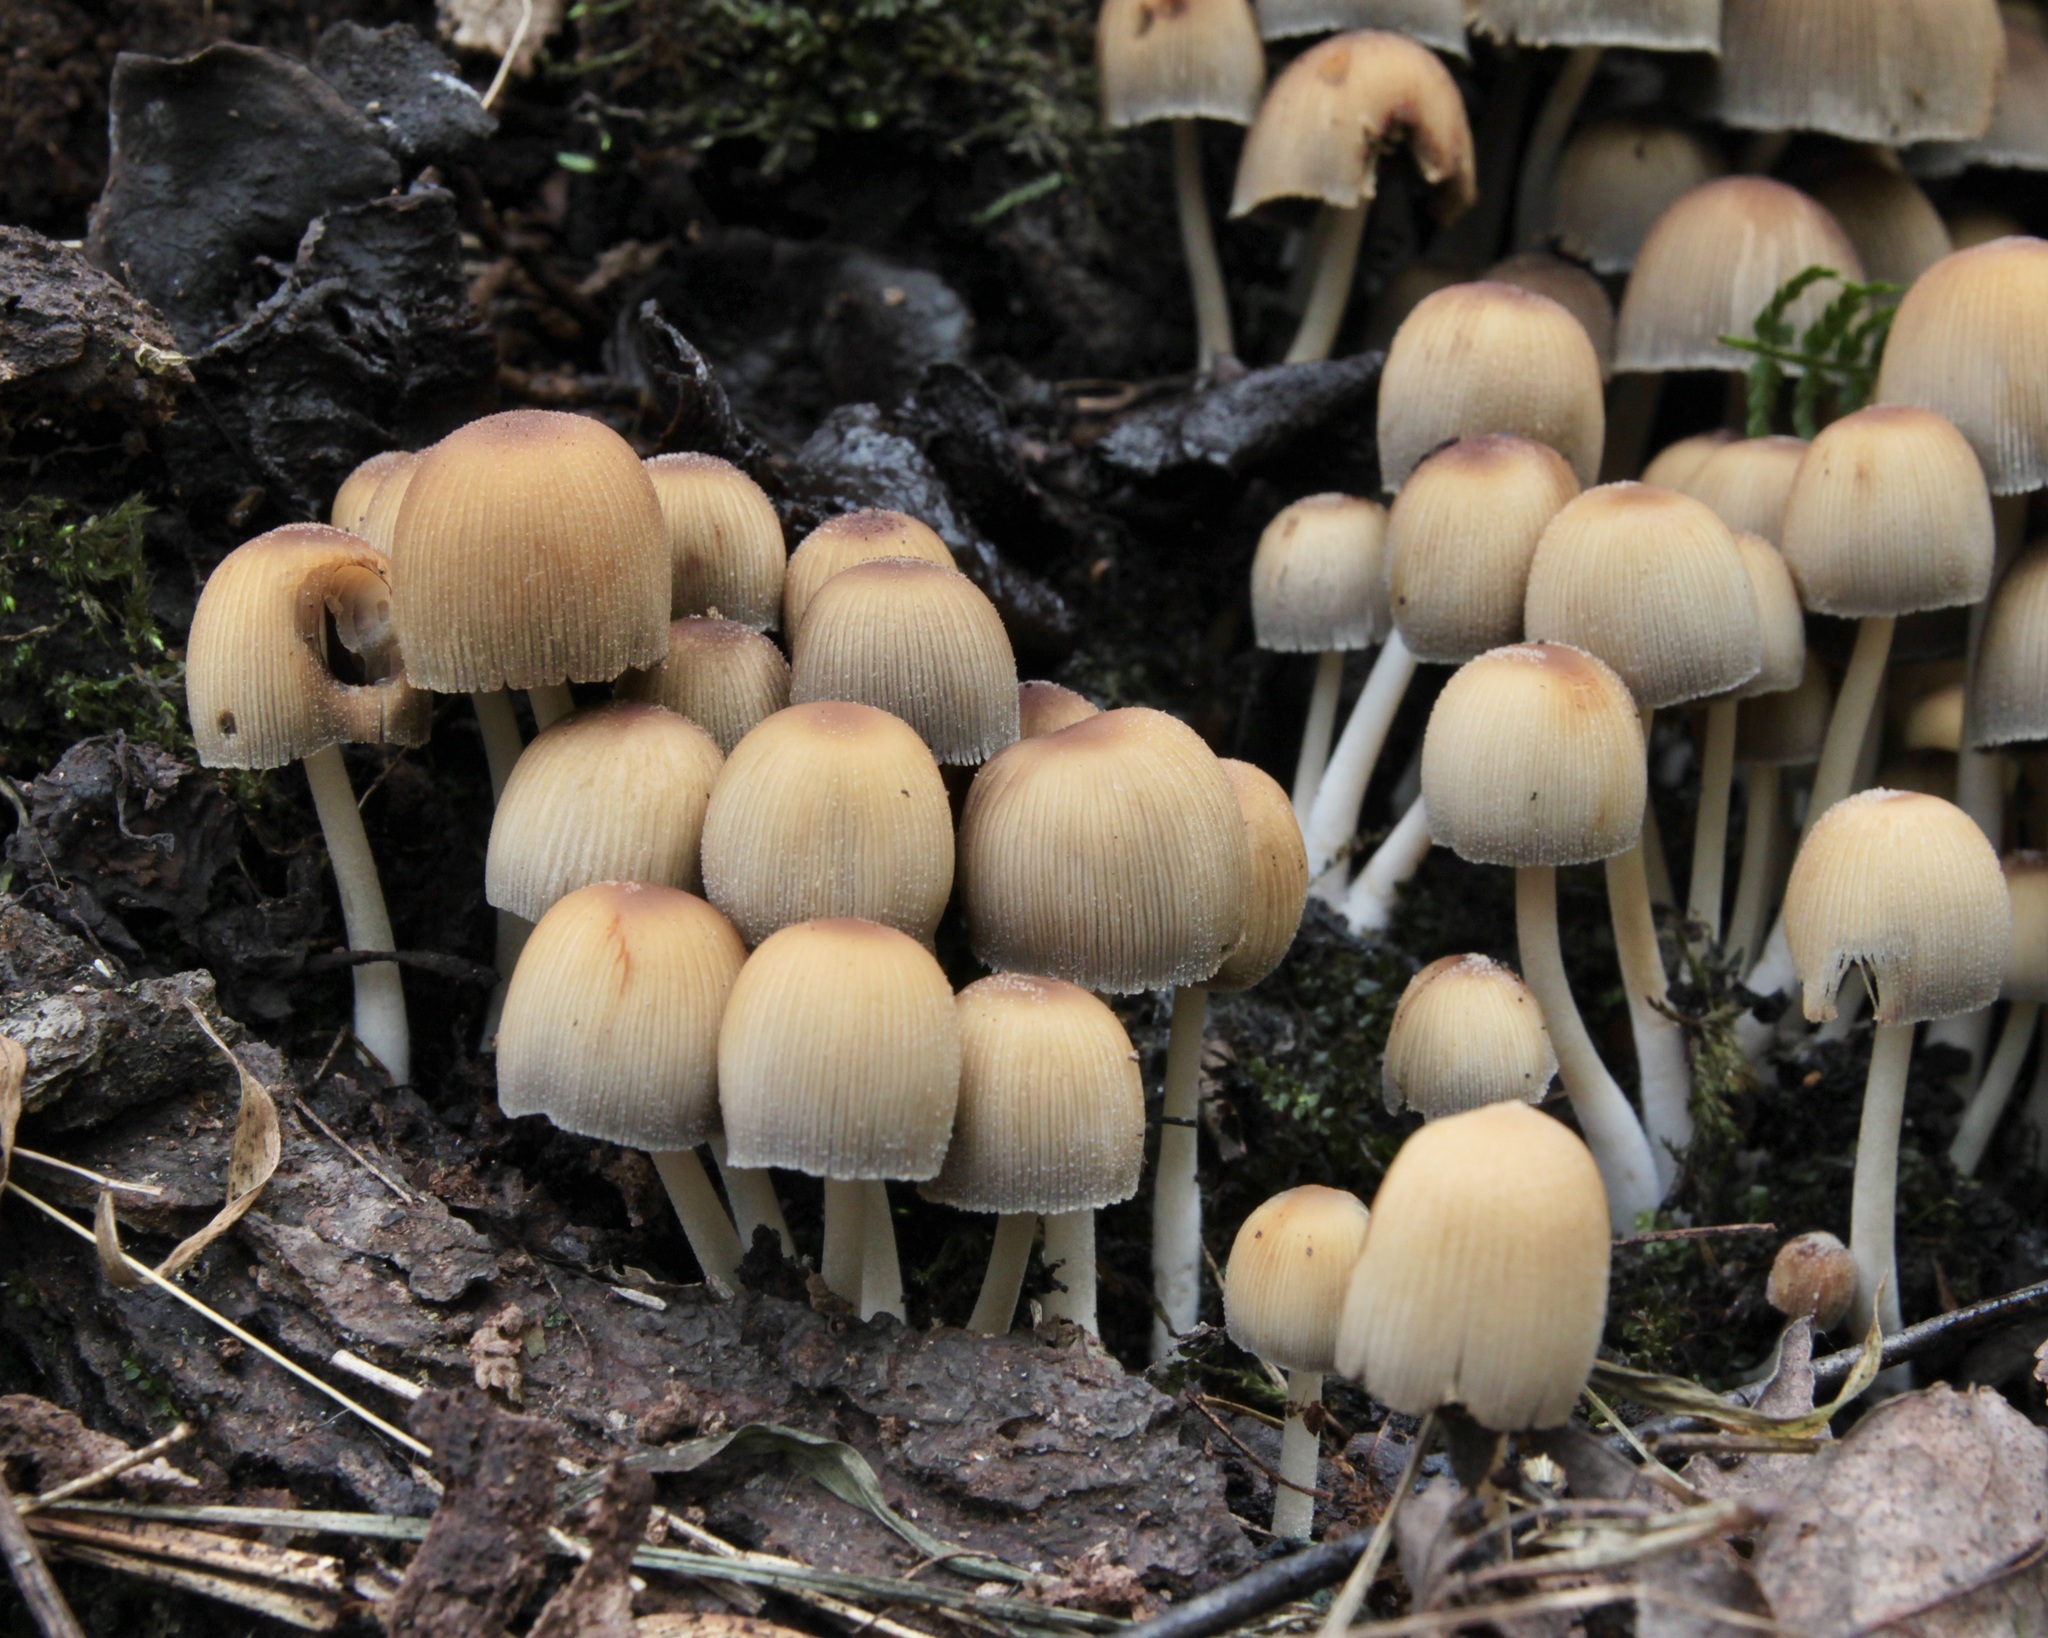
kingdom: Fungi
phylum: Basidiomycota
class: Agaricomycetes
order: Agaricales
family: Psathyrellaceae
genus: Coprinellus
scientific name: Coprinellus micaceus
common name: Glistening ink-cap
